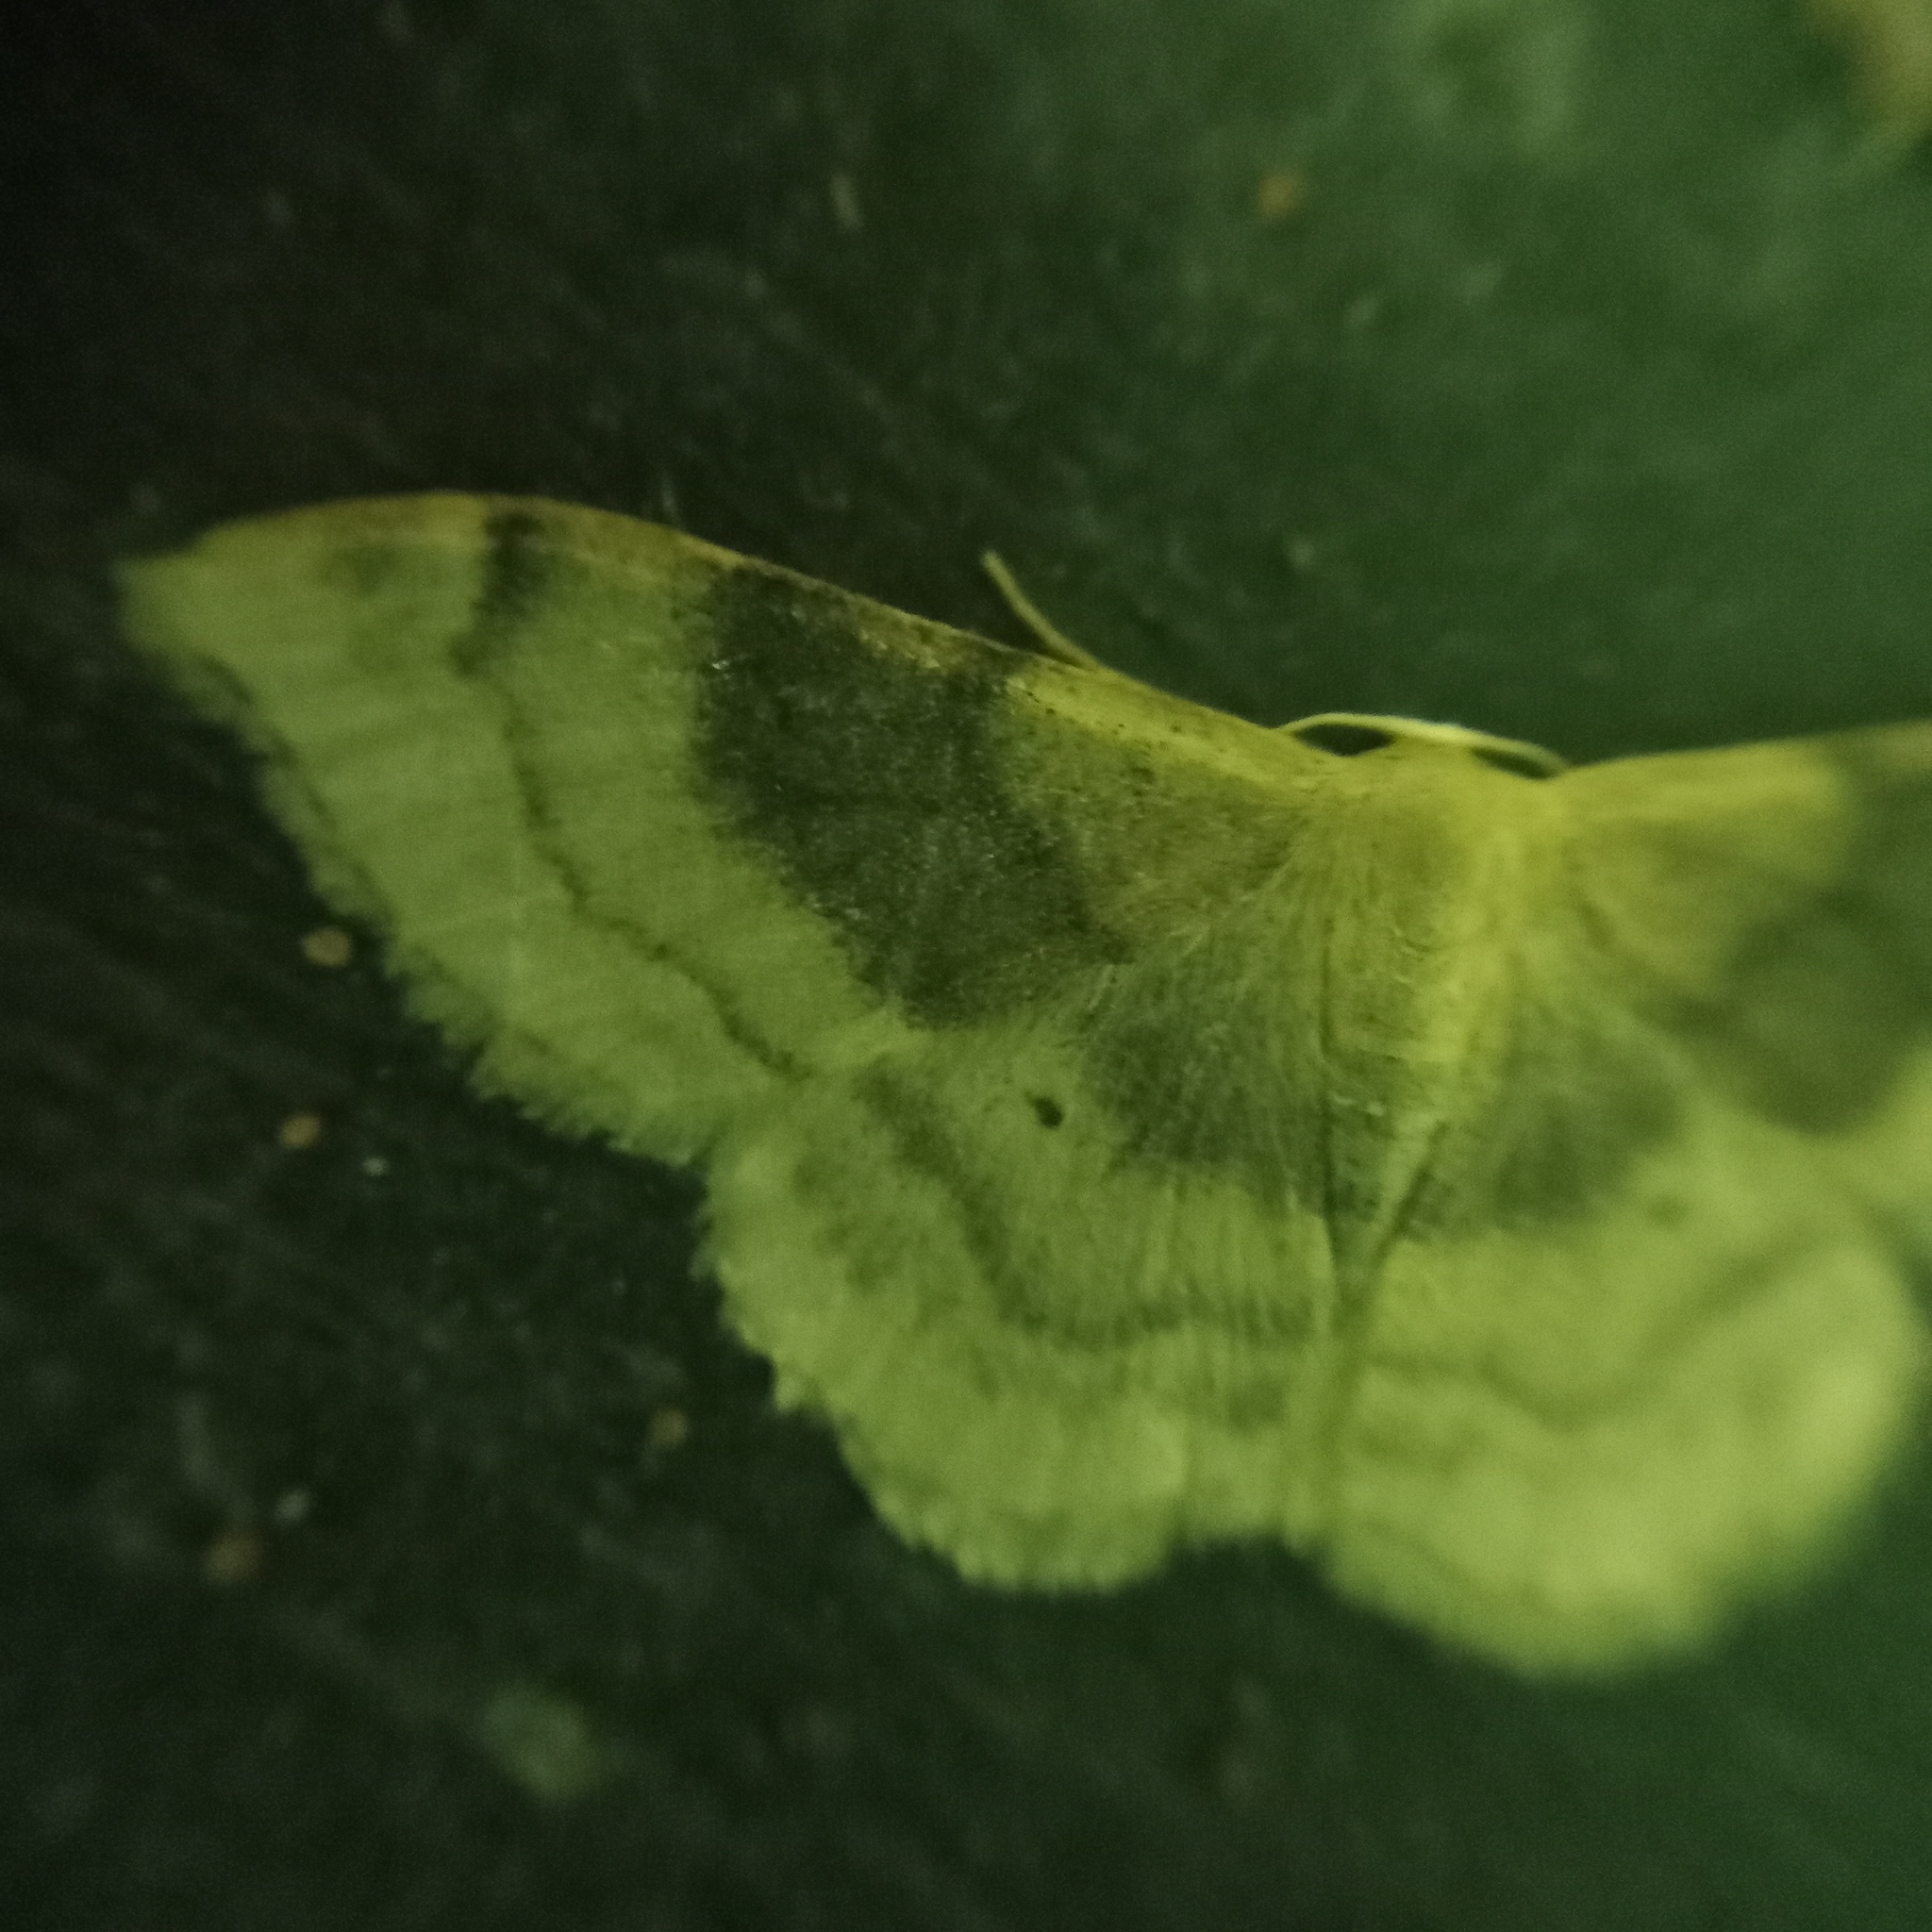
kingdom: Animalia
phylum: Arthropoda
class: Insecta
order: Lepidoptera
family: Geometridae
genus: Idaea
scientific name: Idaea degeneraria
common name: Portland ribbon wave
